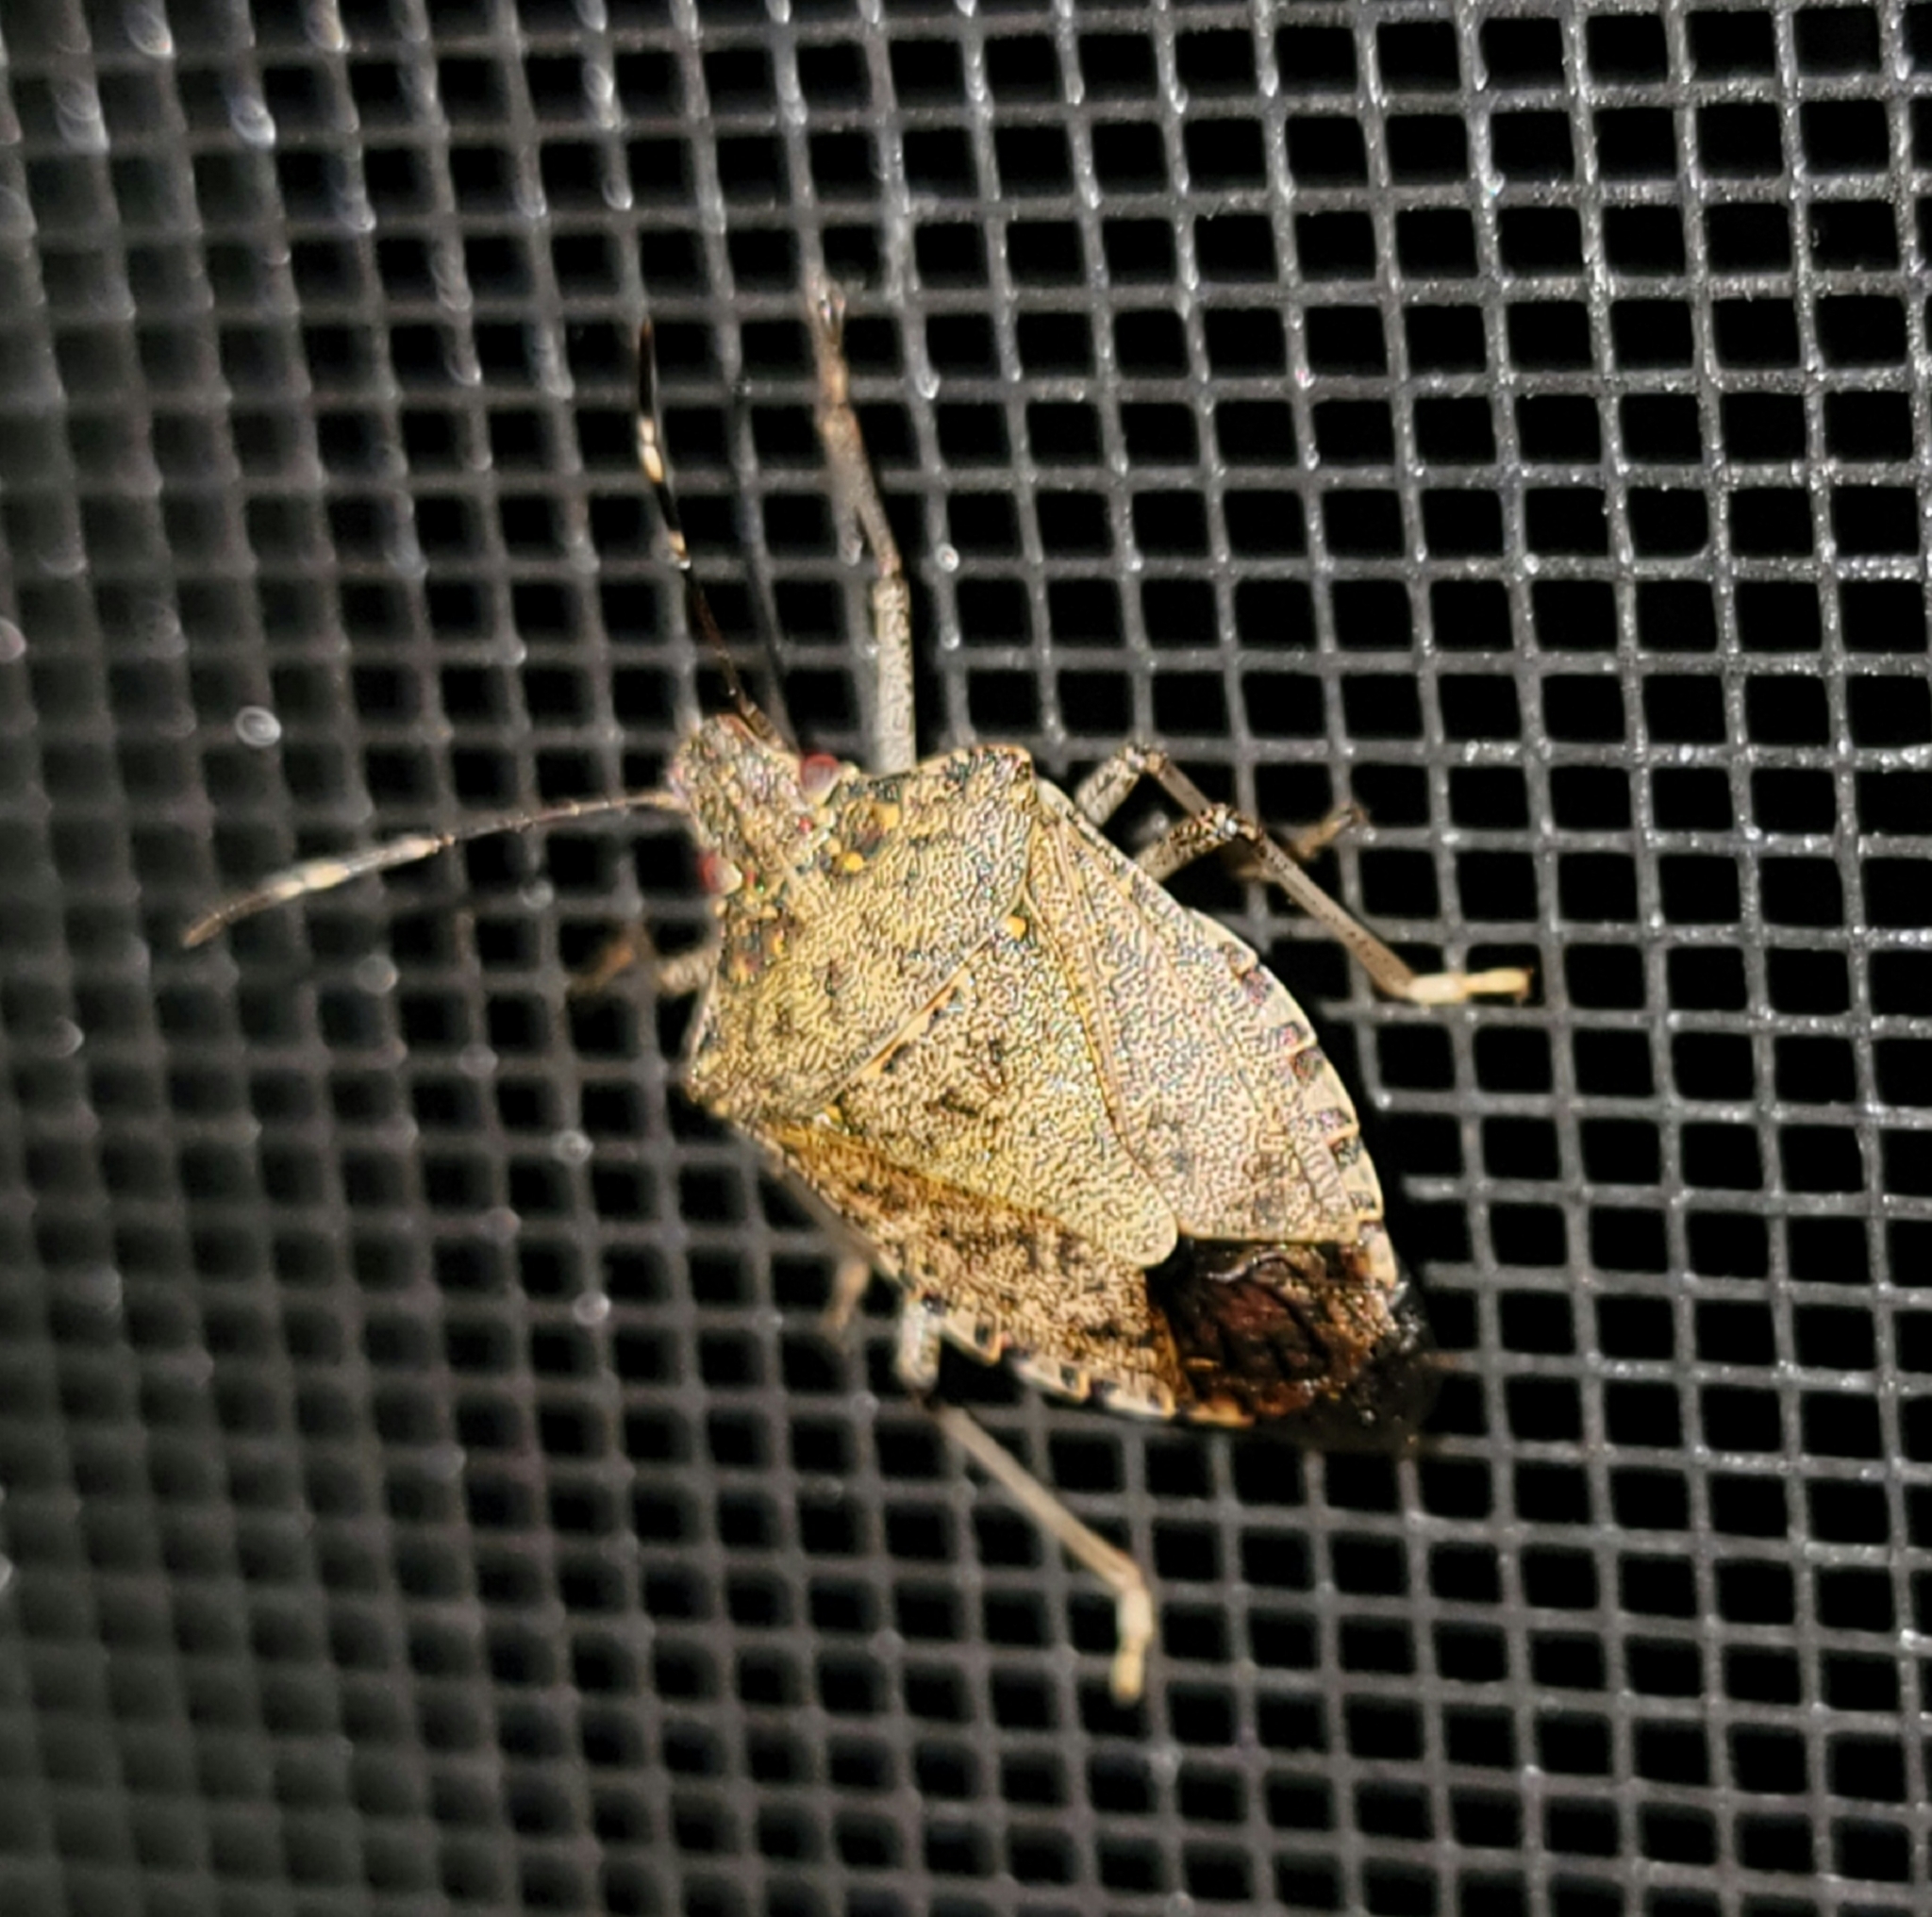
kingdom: Animalia
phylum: Arthropoda
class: Insecta
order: Hemiptera
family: Pentatomidae
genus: Halyomorpha
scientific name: Halyomorpha halys
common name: Brown marmorated stink bug
